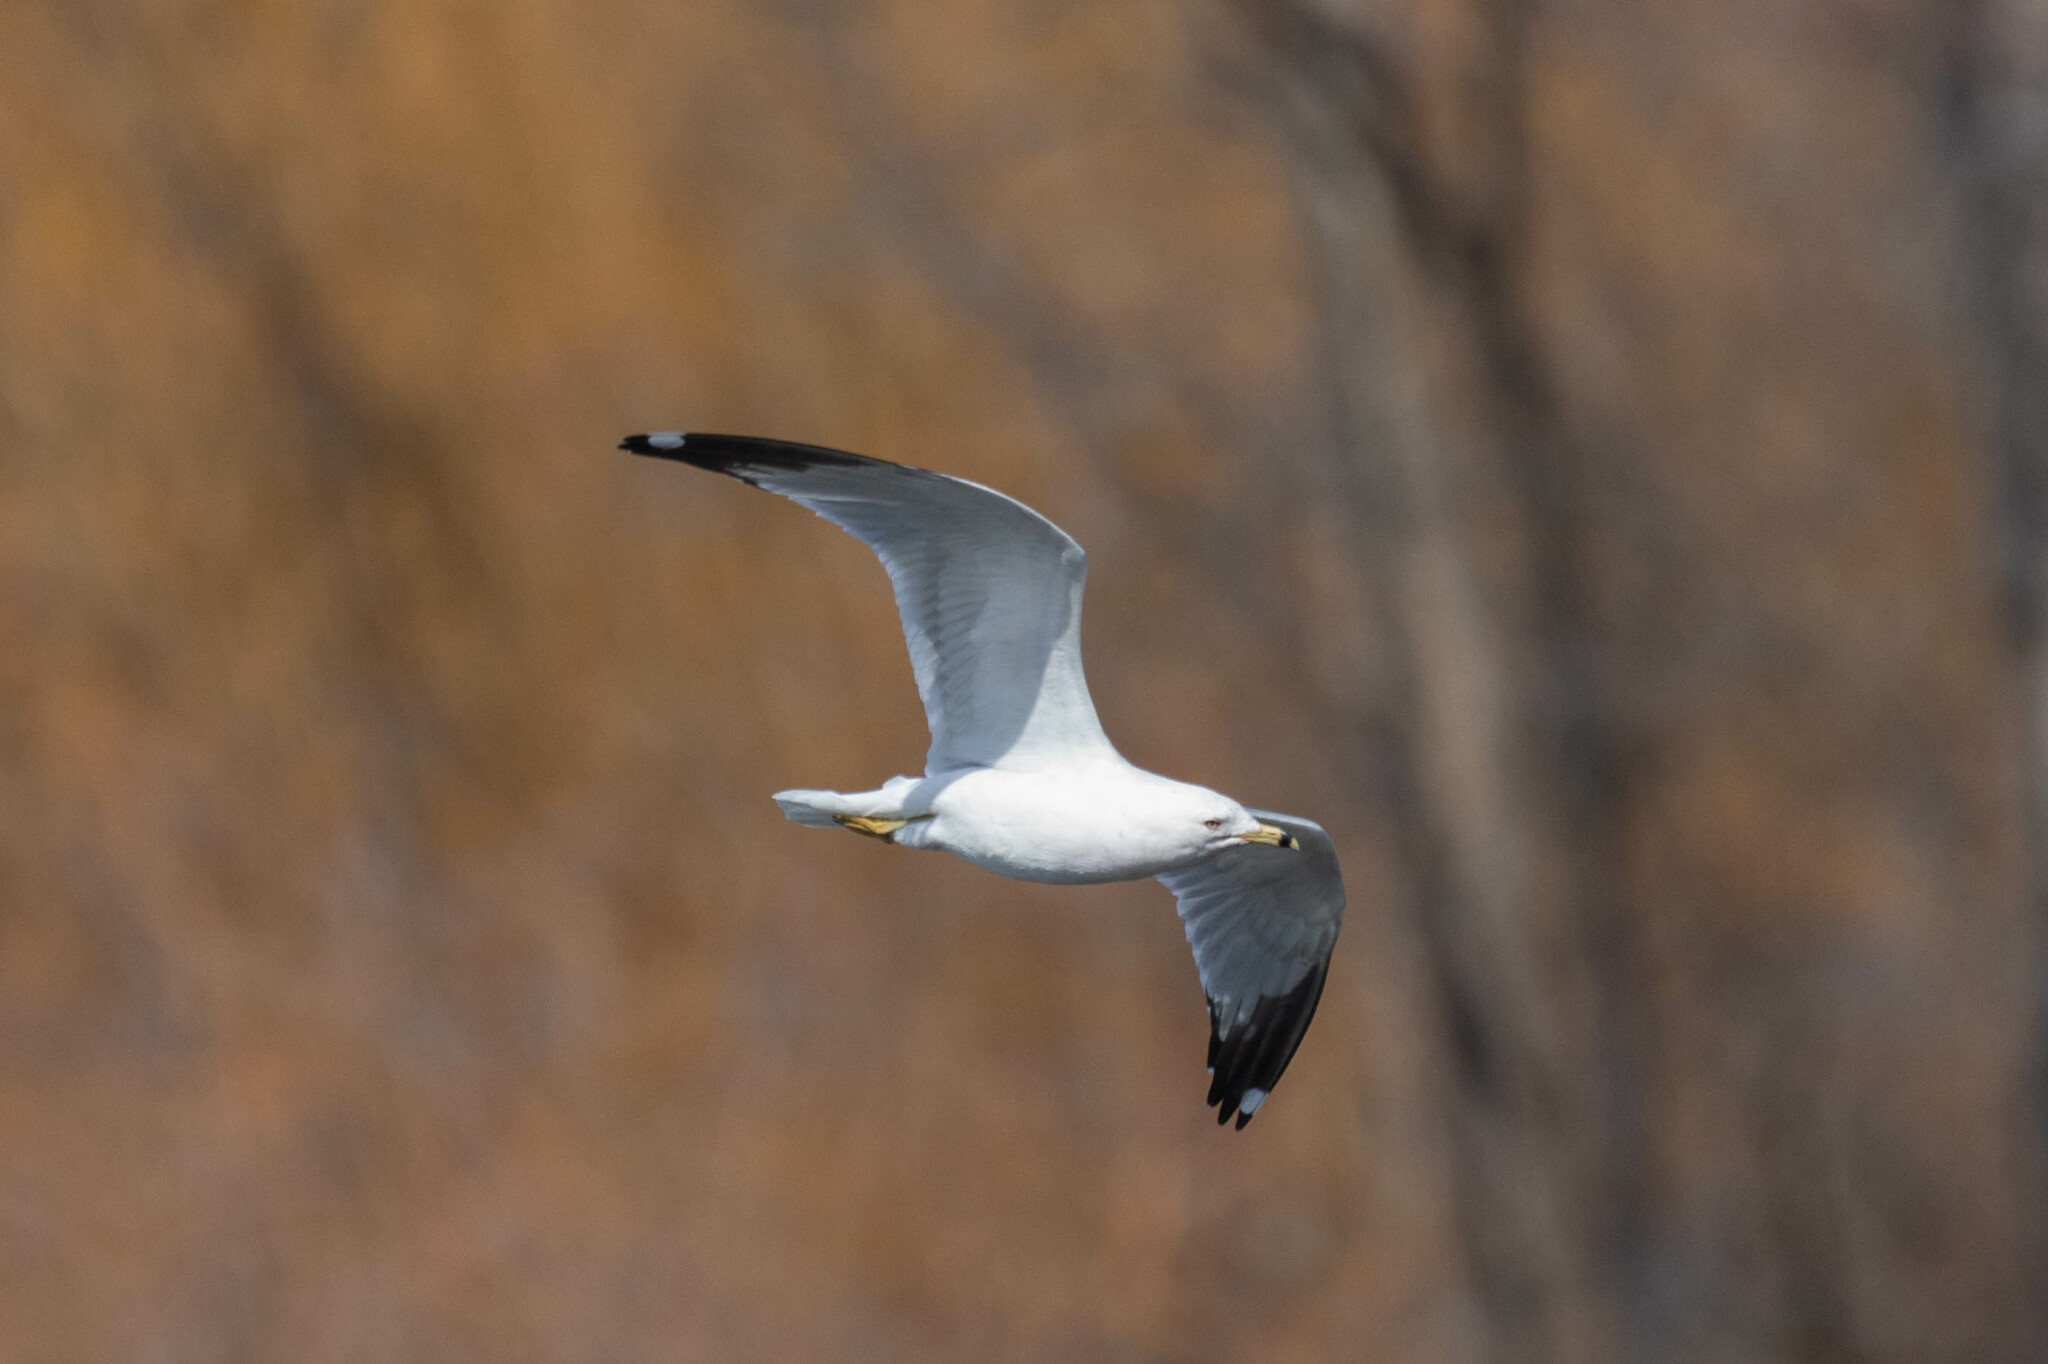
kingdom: Animalia
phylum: Chordata
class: Aves
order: Charadriiformes
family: Laridae
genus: Larus
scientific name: Larus delawarensis
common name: Ring-billed gull
